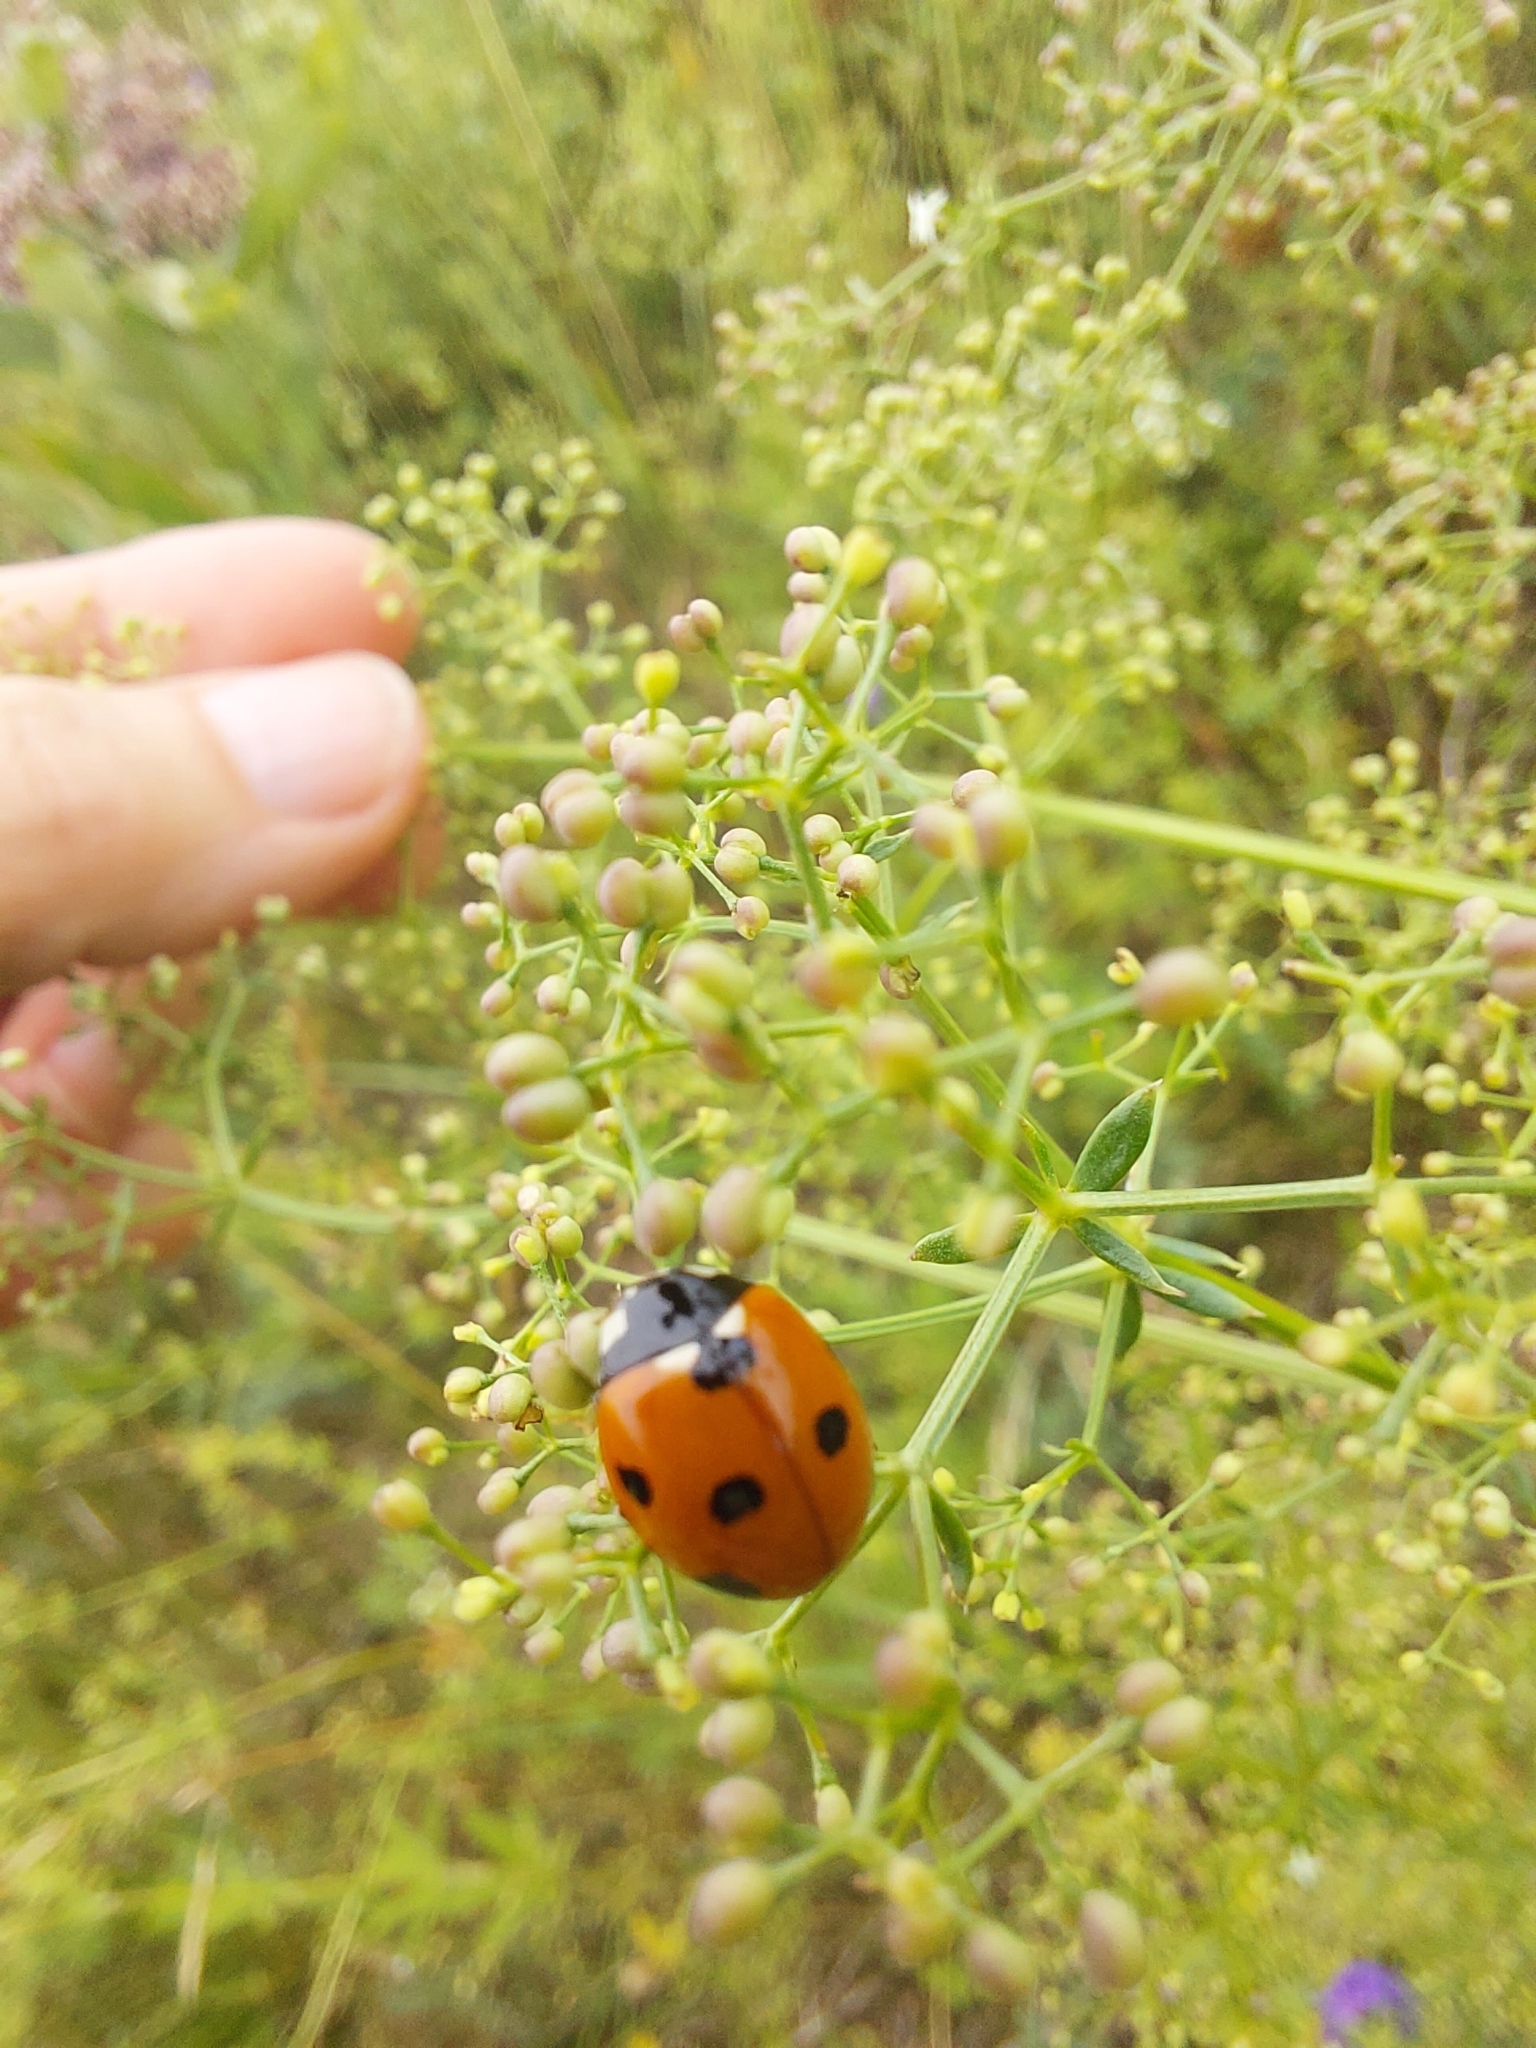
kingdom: Animalia
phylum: Arthropoda
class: Insecta
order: Coleoptera
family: Coccinellidae
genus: Coccinella
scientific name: Coccinella septempunctata
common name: Sevenspotted lady beetle
